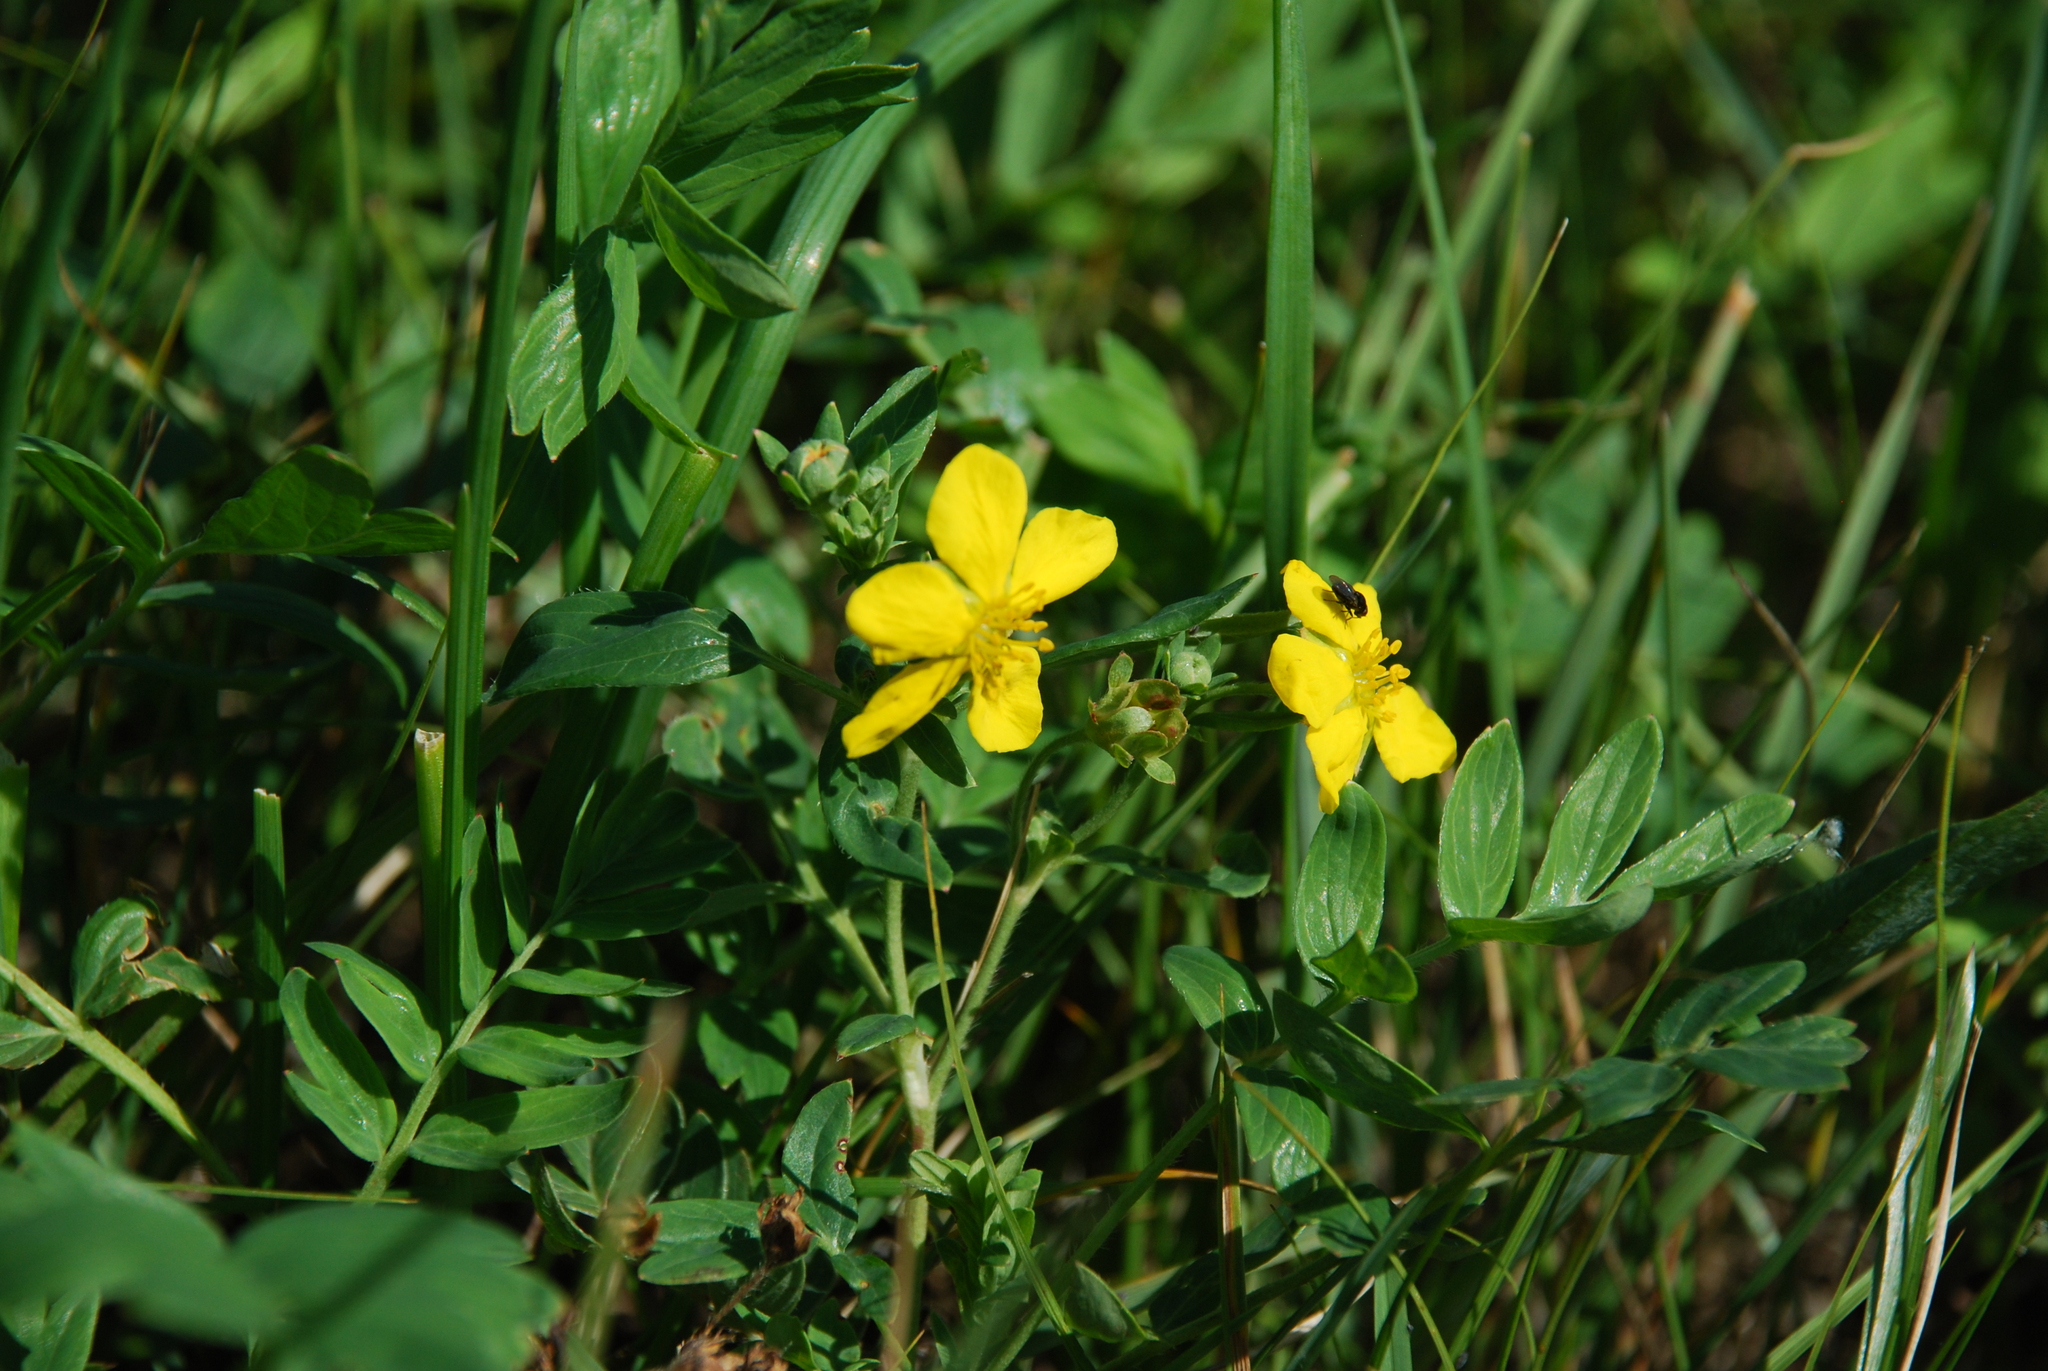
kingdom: Plantae
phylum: Tracheophyta
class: Magnoliopsida
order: Rosales
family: Rosaceae
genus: Sibbaldianthe
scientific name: Sibbaldianthe bifurca
